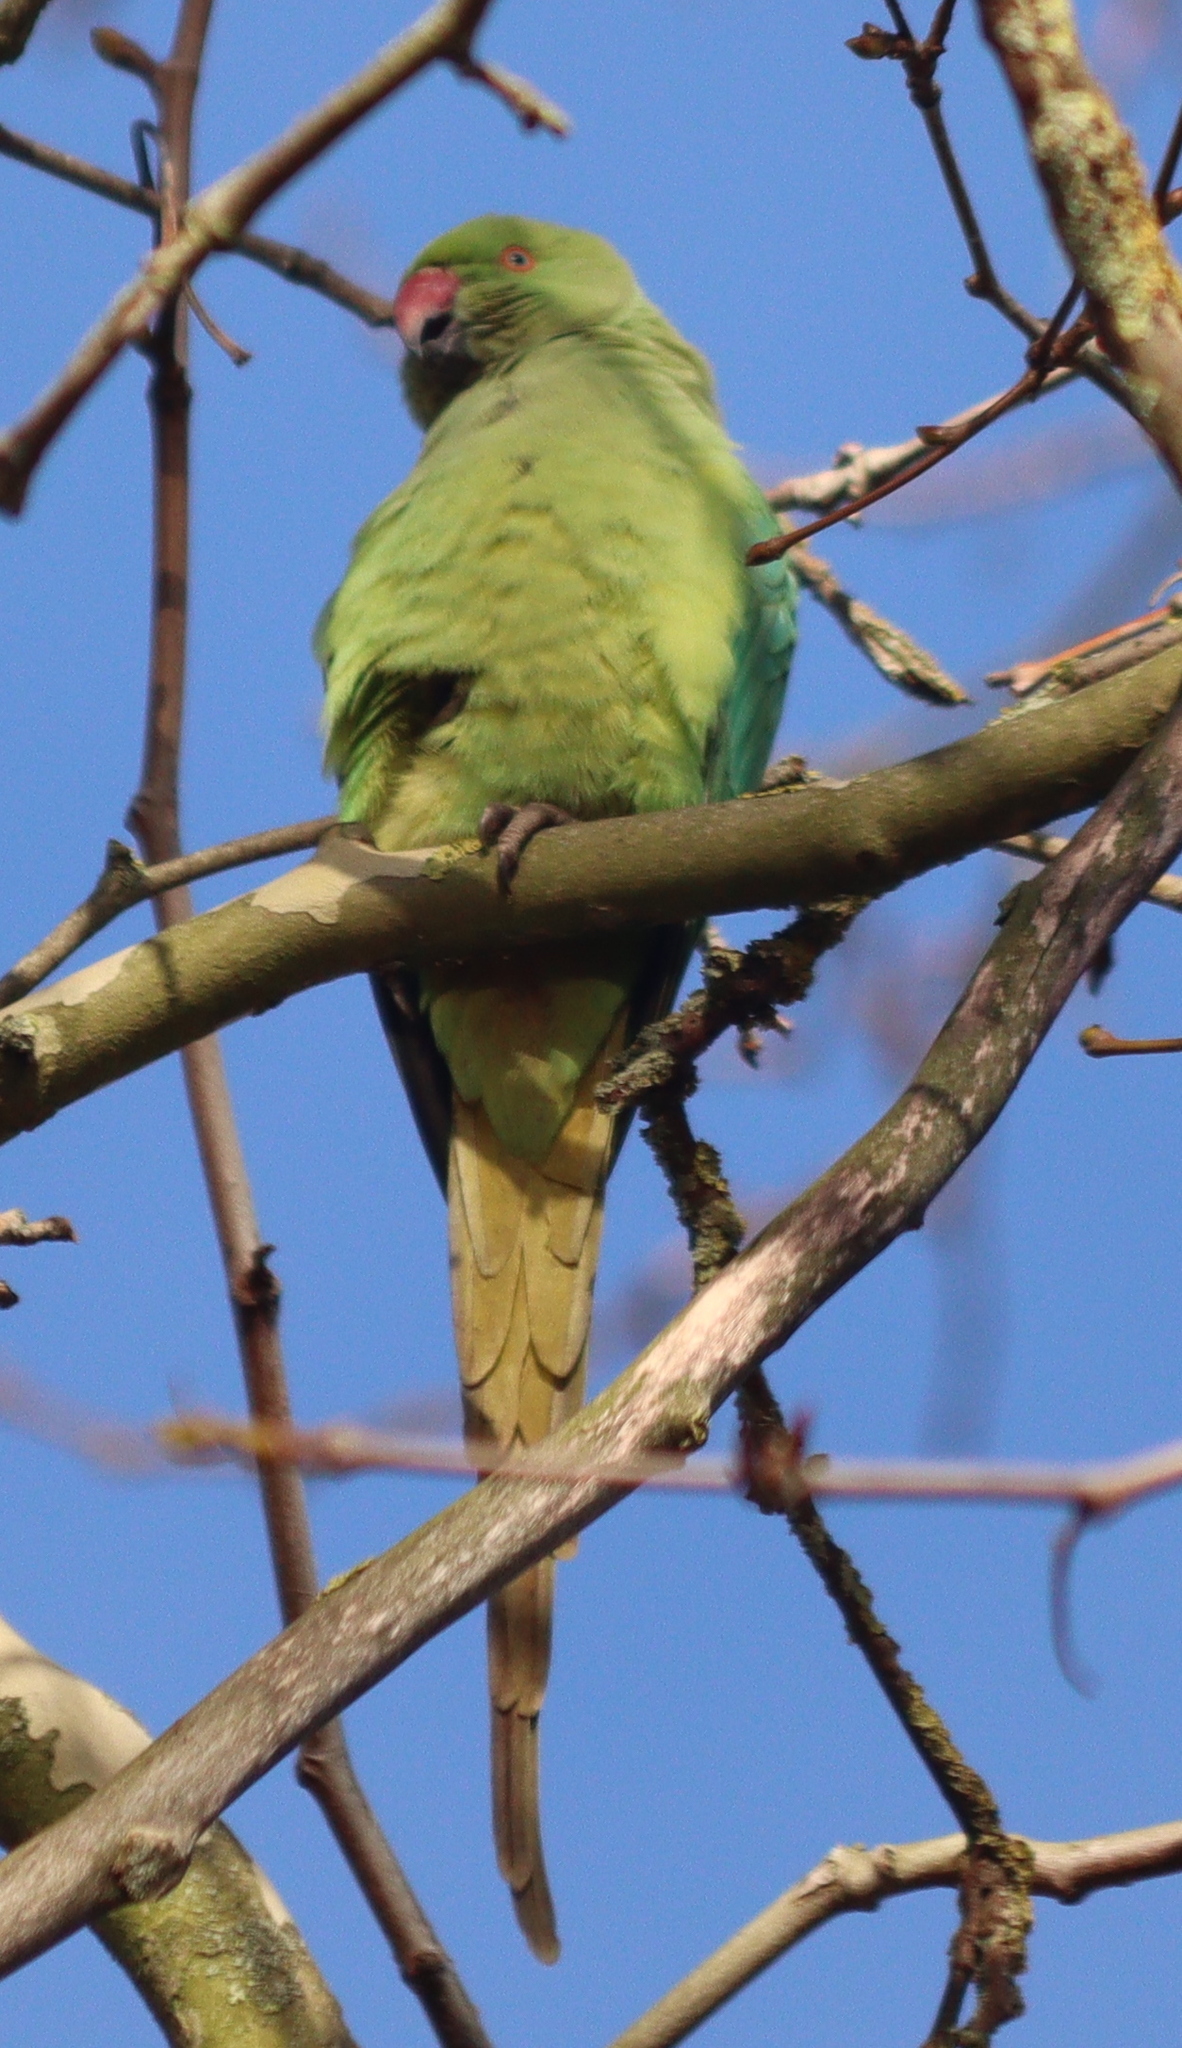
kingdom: Animalia
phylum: Chordata
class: Aves
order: Psittaciformes
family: Psittacidae
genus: Psittacula
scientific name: Psittacula krameri
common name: Rose-ringed parakeet
